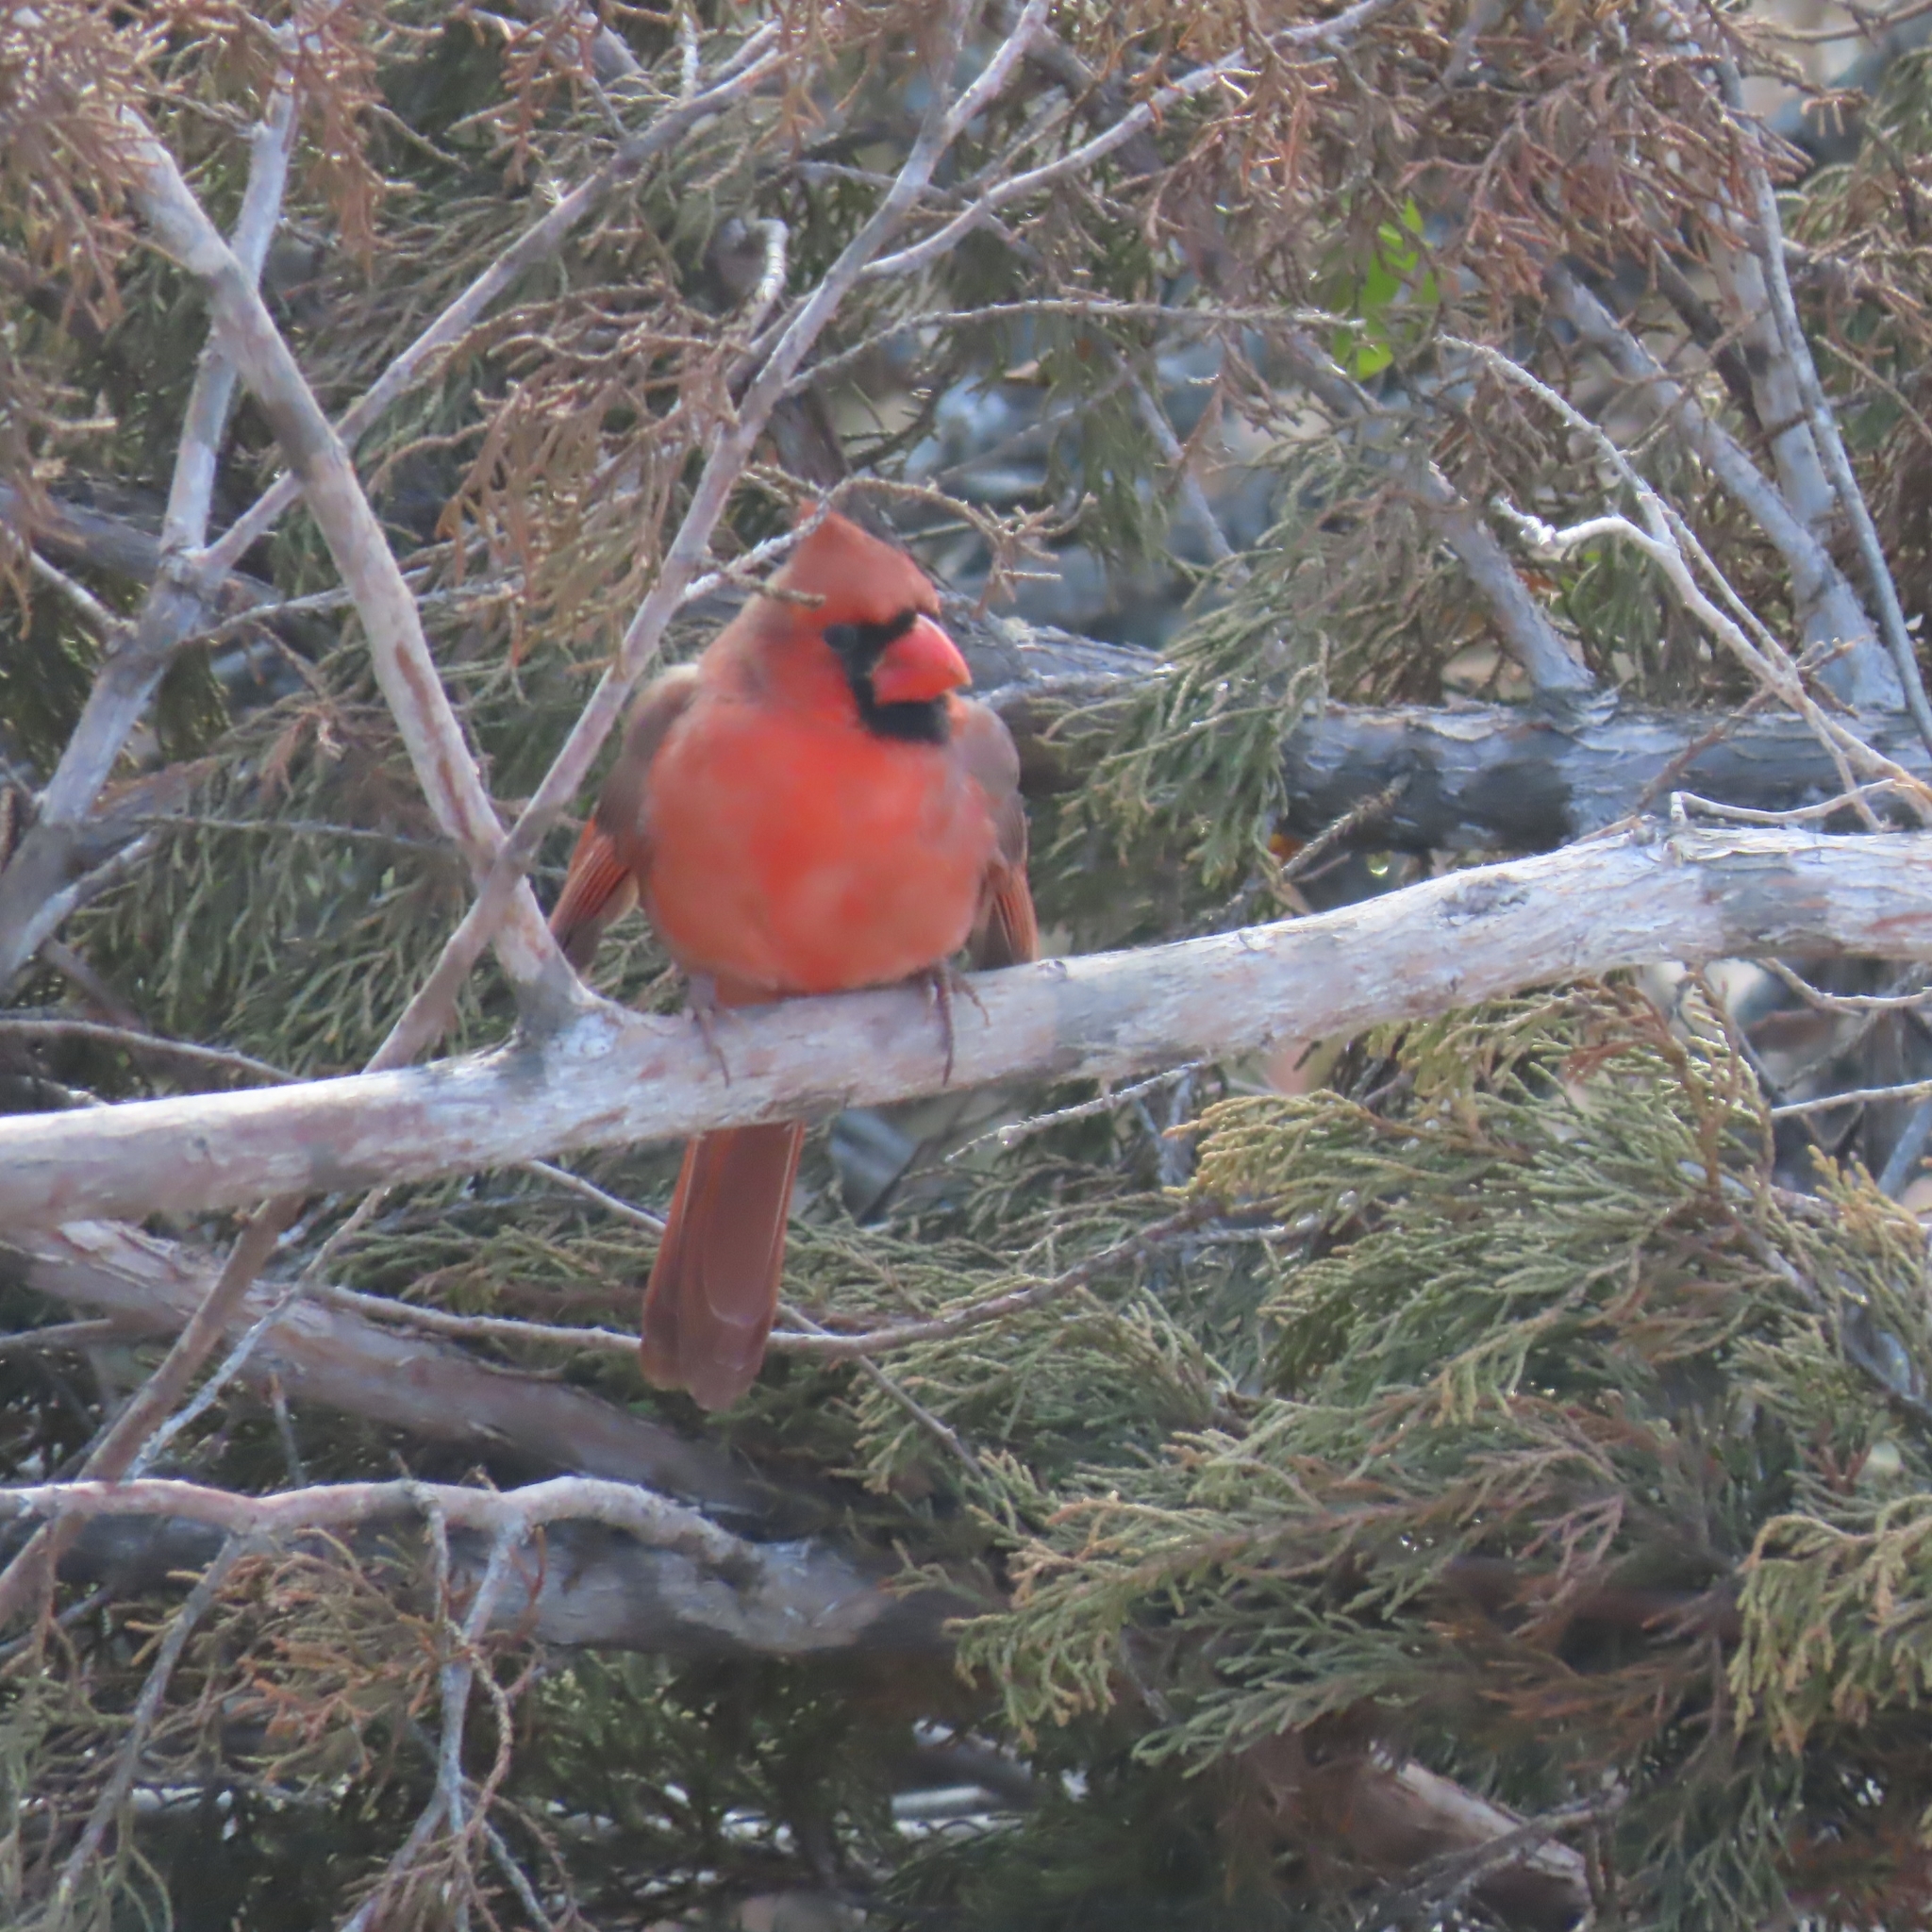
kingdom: Animalia
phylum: Chordata
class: Aves
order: Passeriformes
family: Cardinalidae
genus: Cardinalis
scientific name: Cardinalis cardinalis
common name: Northern cardinal
